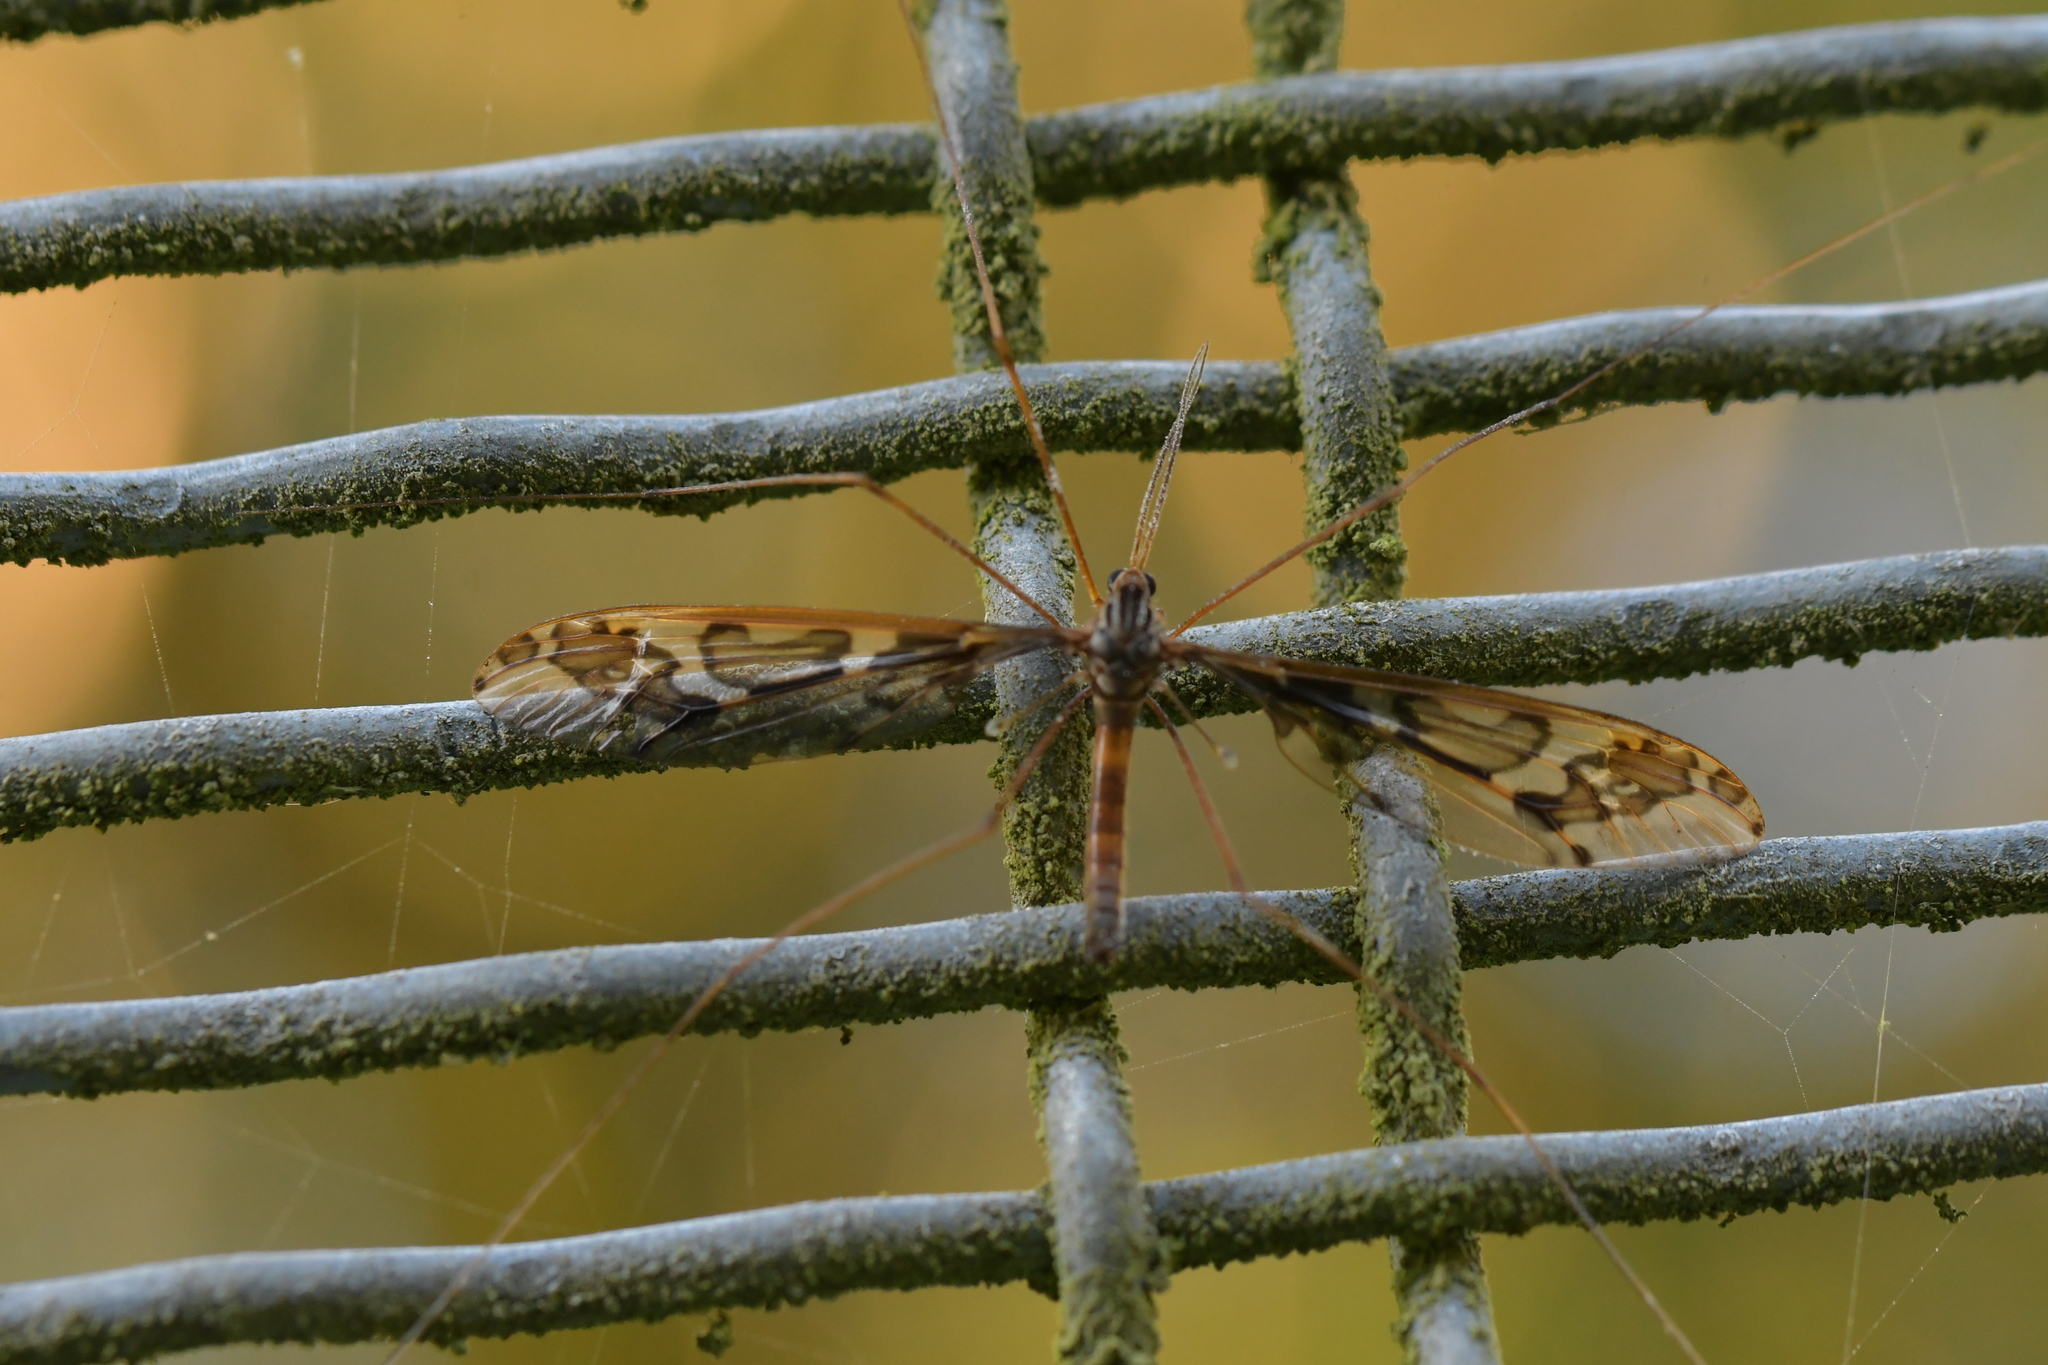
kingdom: Animalia
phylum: Arthropoda
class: Insecta
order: Diptera
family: Tipulidae
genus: Leptotarsus
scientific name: Leptotarsus binotatus
